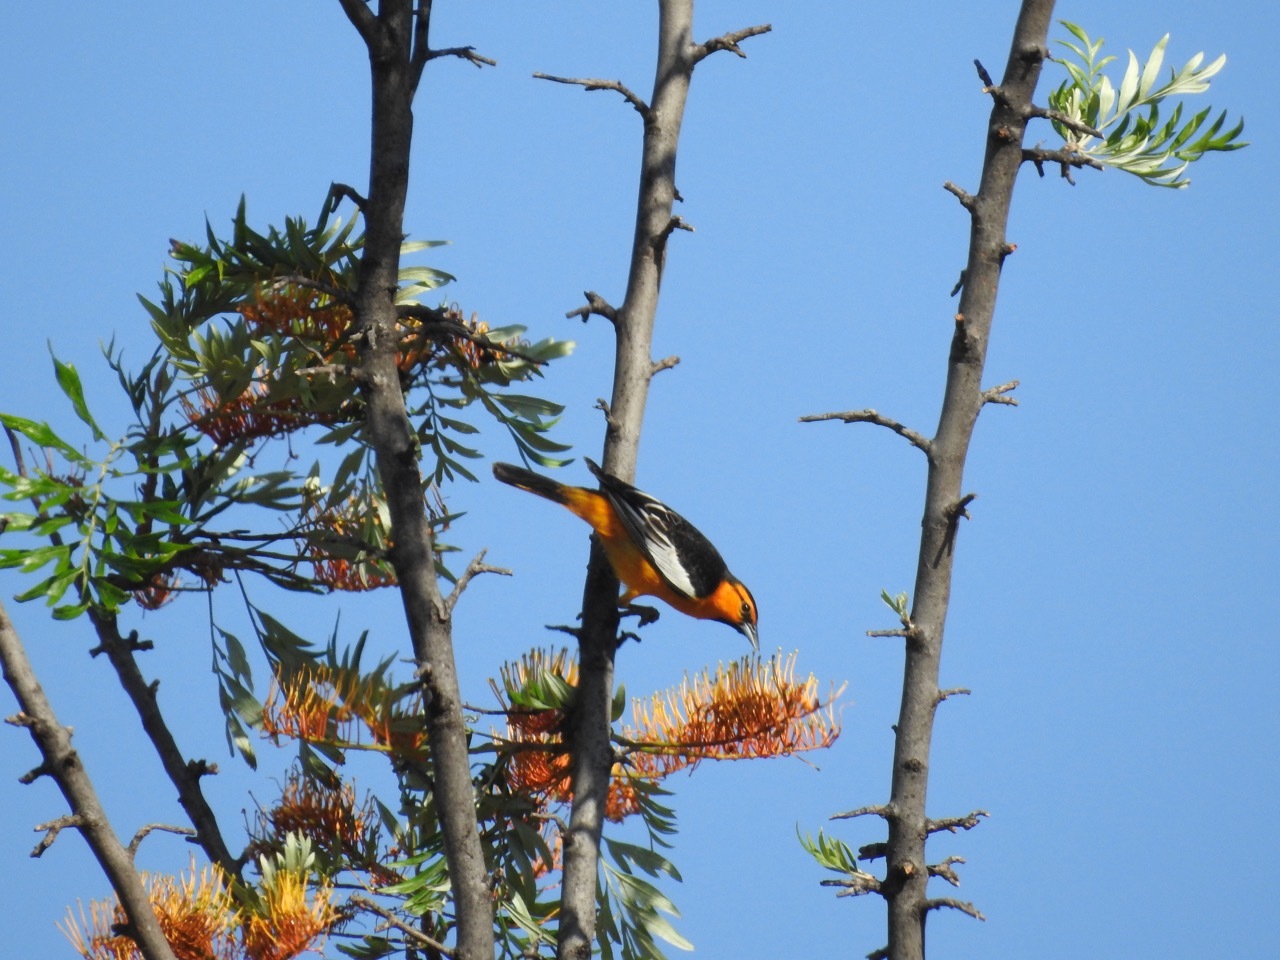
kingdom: Animalia
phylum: Chordata
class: Aves
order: Passeriformes
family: Icteridae
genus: Icterus
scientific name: Icterus bullockii
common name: Bullock's oriole
